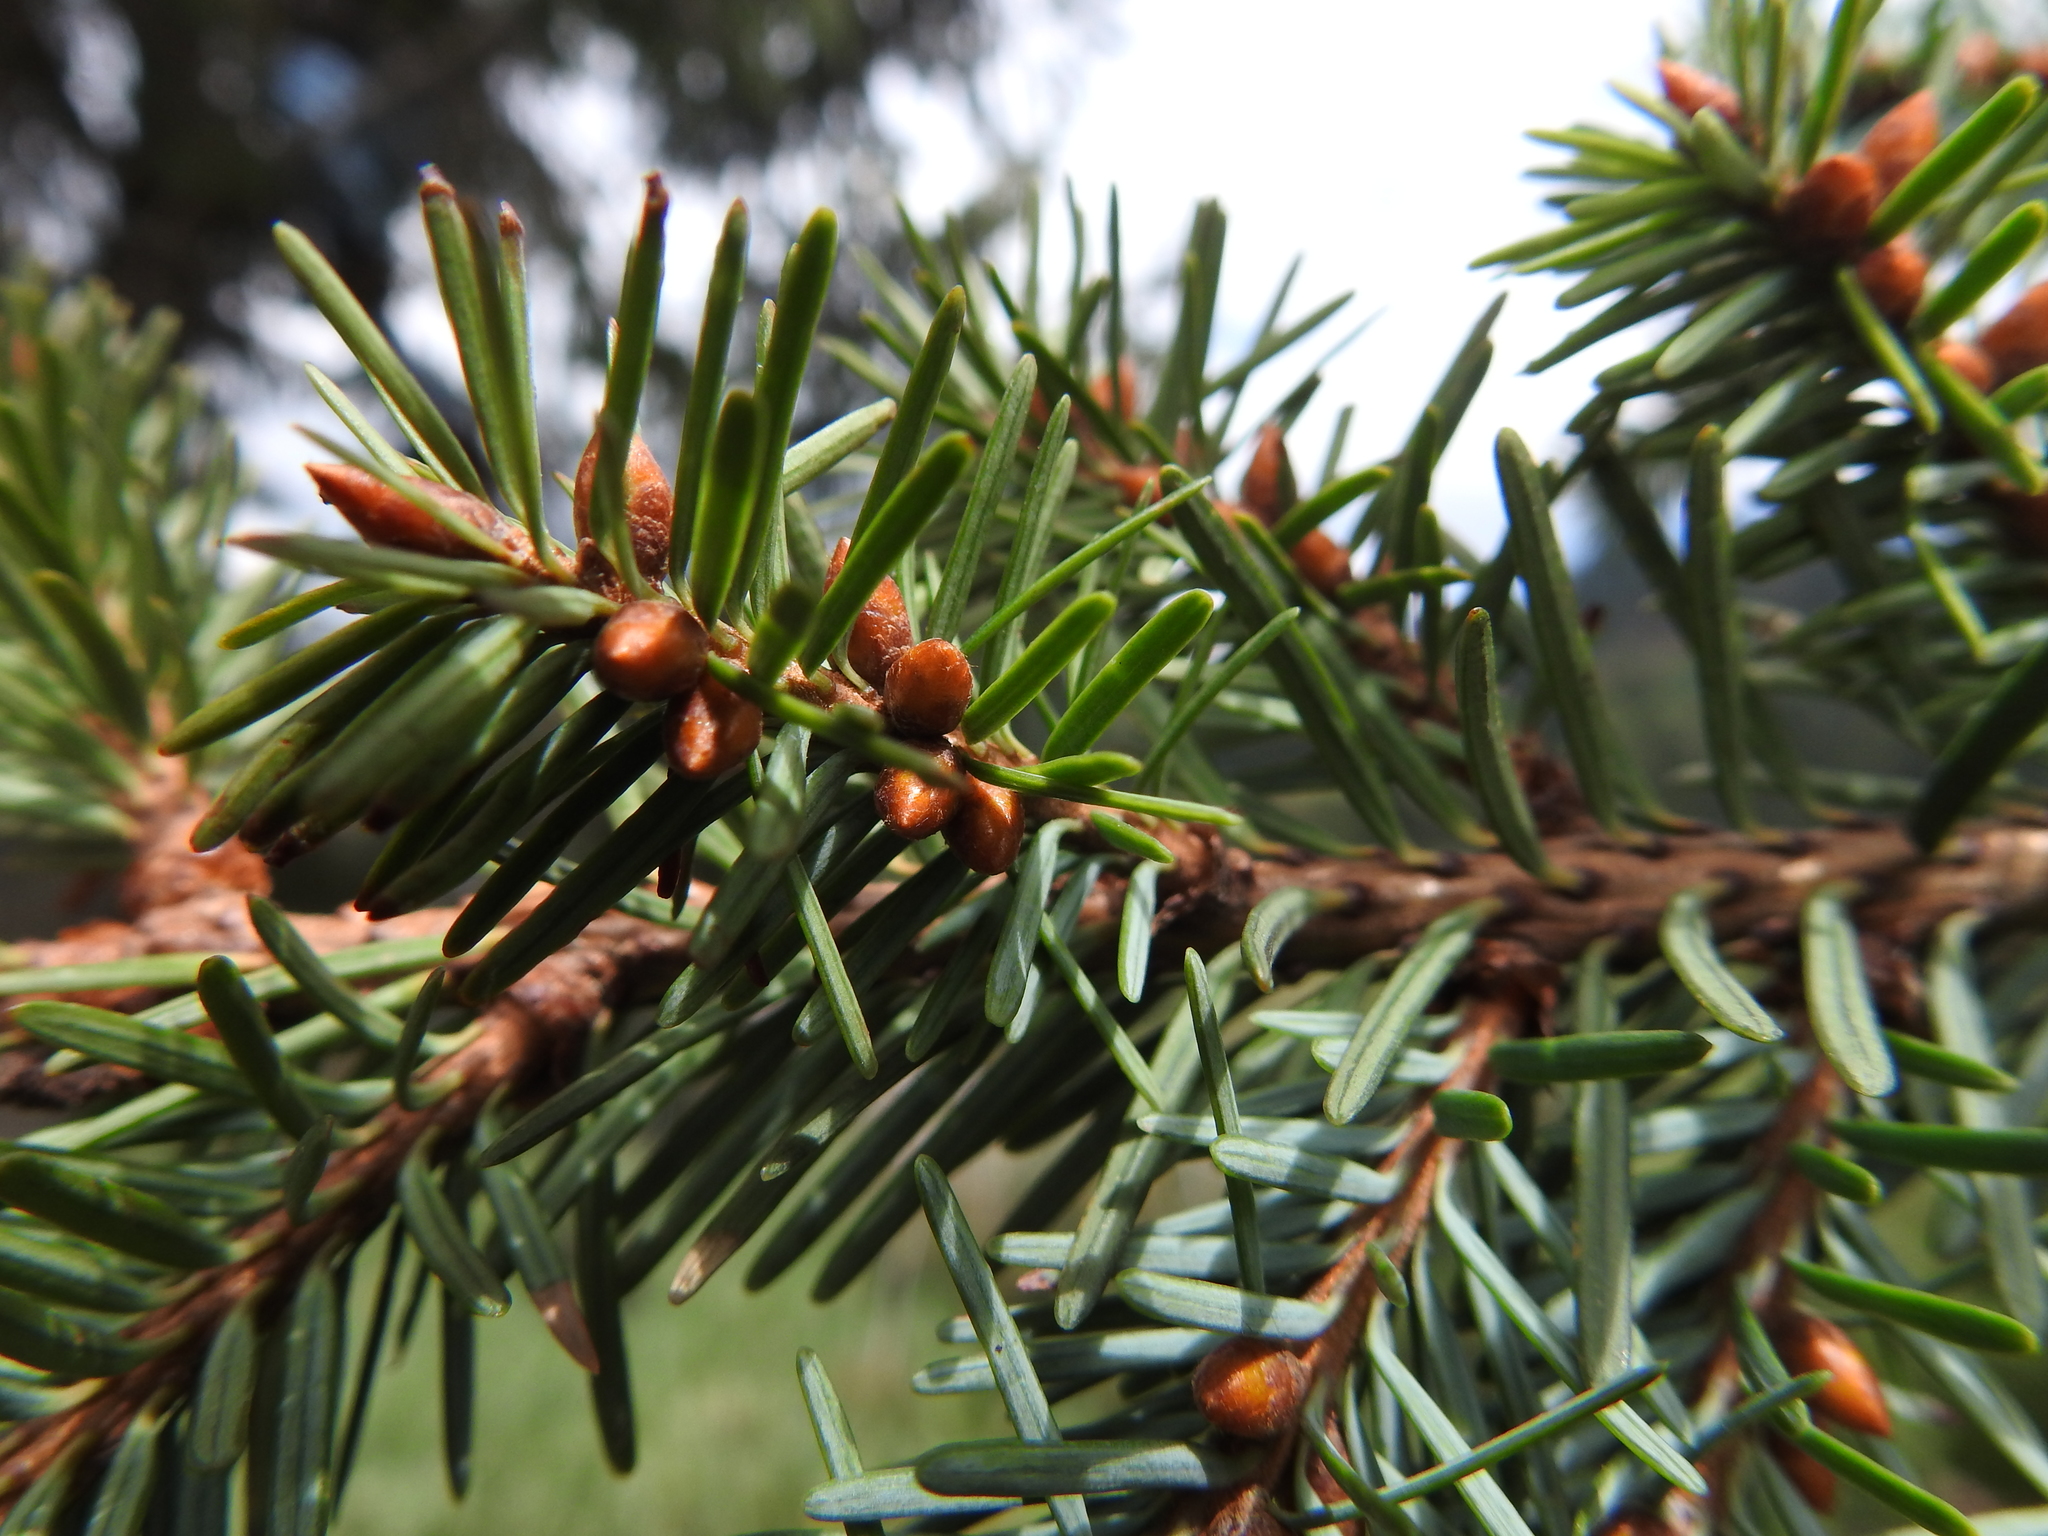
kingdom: Plantae
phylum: Tracheophyta
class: Pinopsida
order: Pinales
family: Pinaceae
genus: Pseudotsuga
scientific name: Pseudotsuga menziesii
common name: Douglas fir
